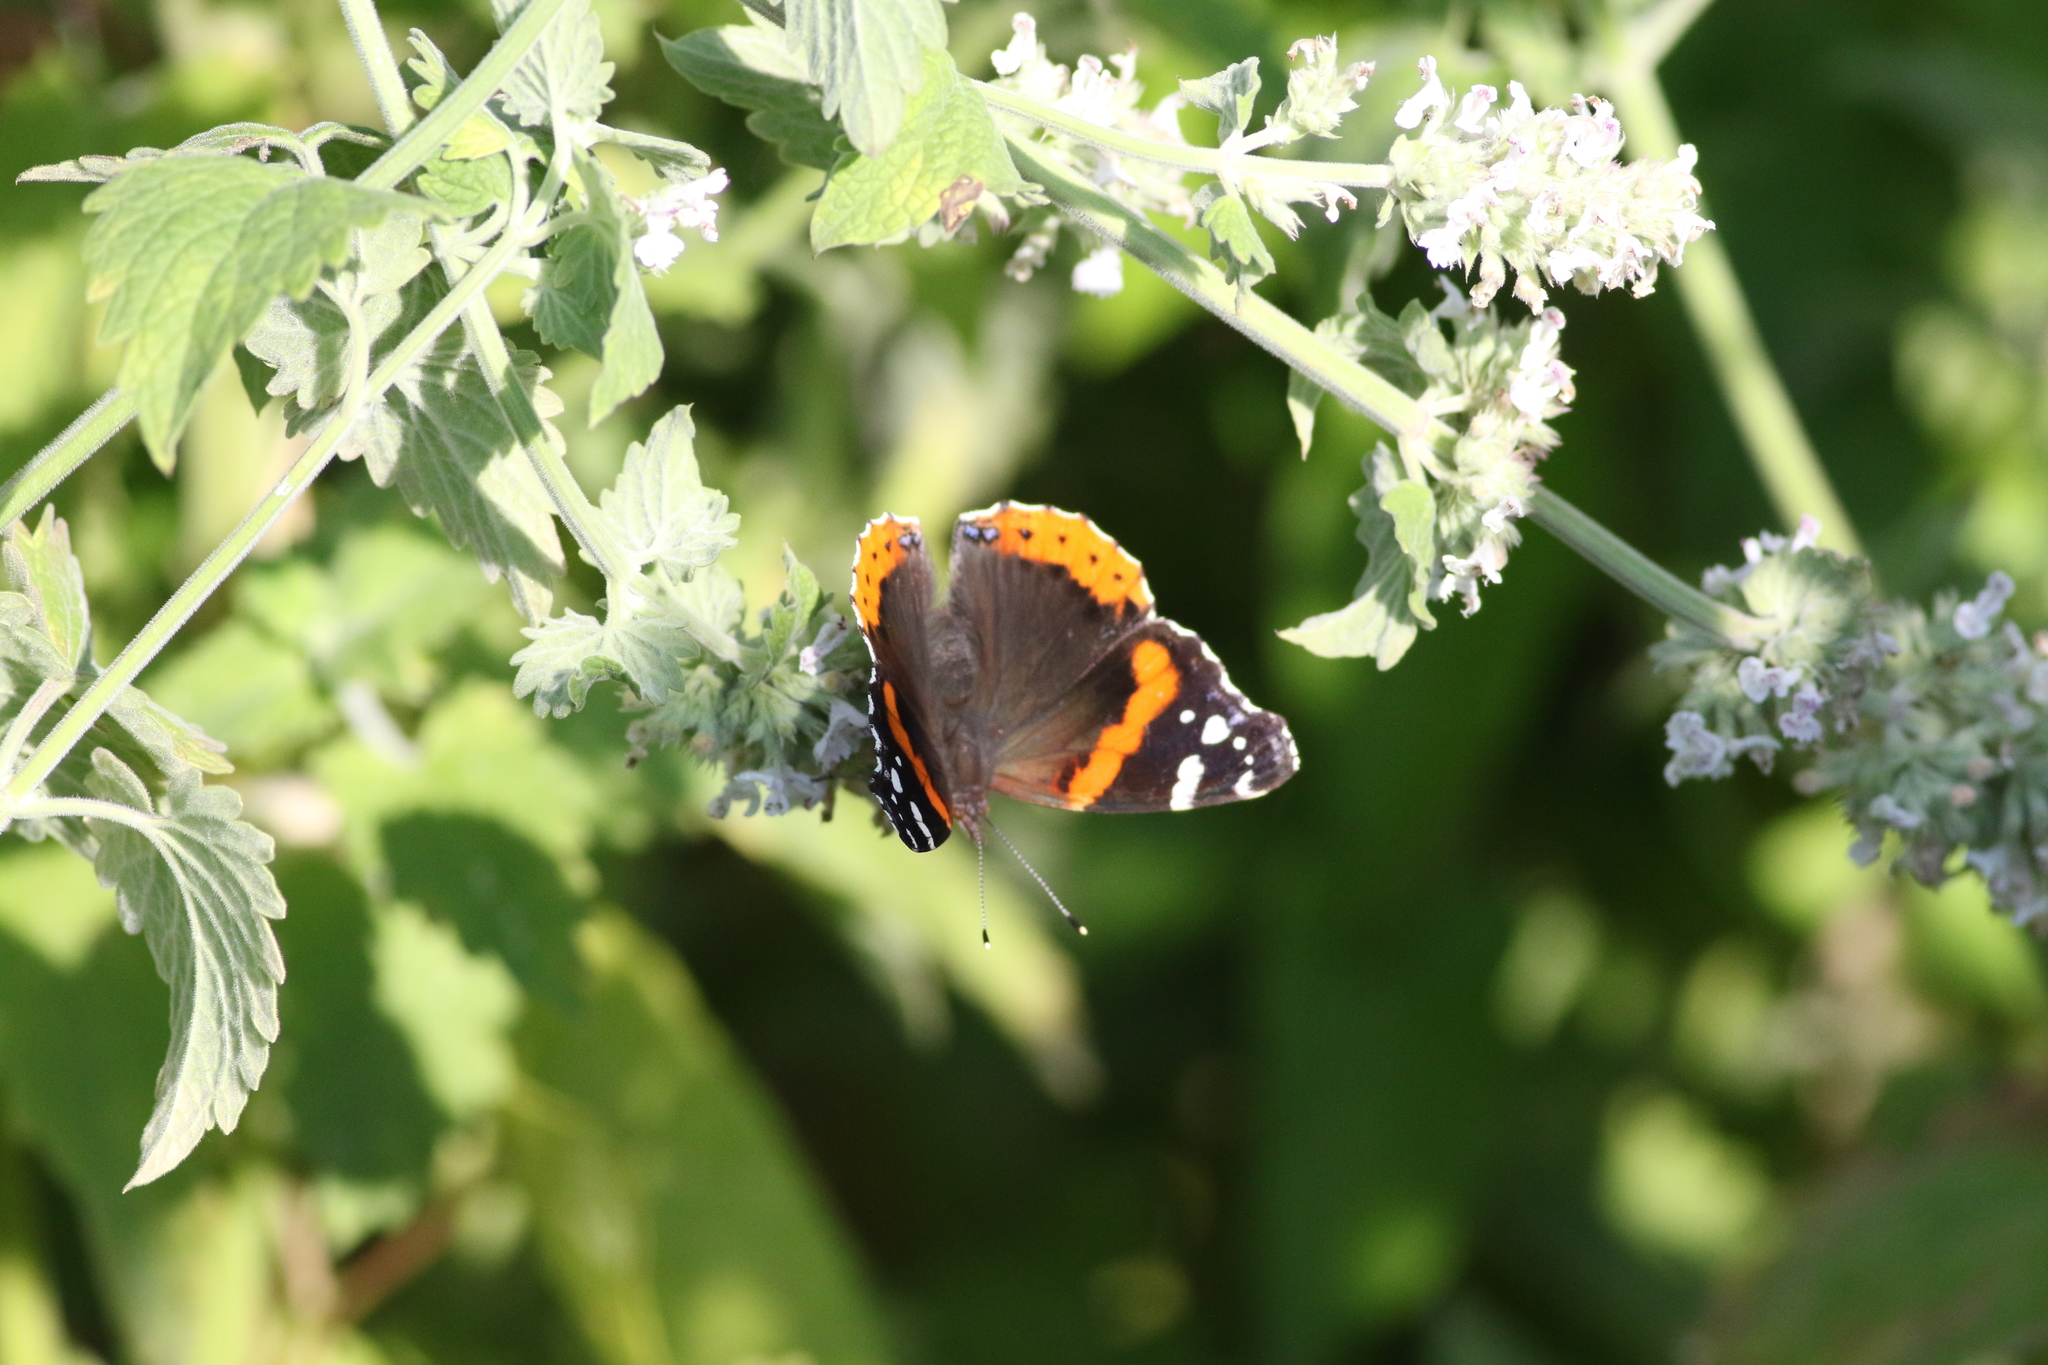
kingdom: Animalia
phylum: Arthropoda
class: Insecta
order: Lepidoptera
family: Nymphalidae
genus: Vanessa
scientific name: Vanessa atalanta
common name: Red admiral
